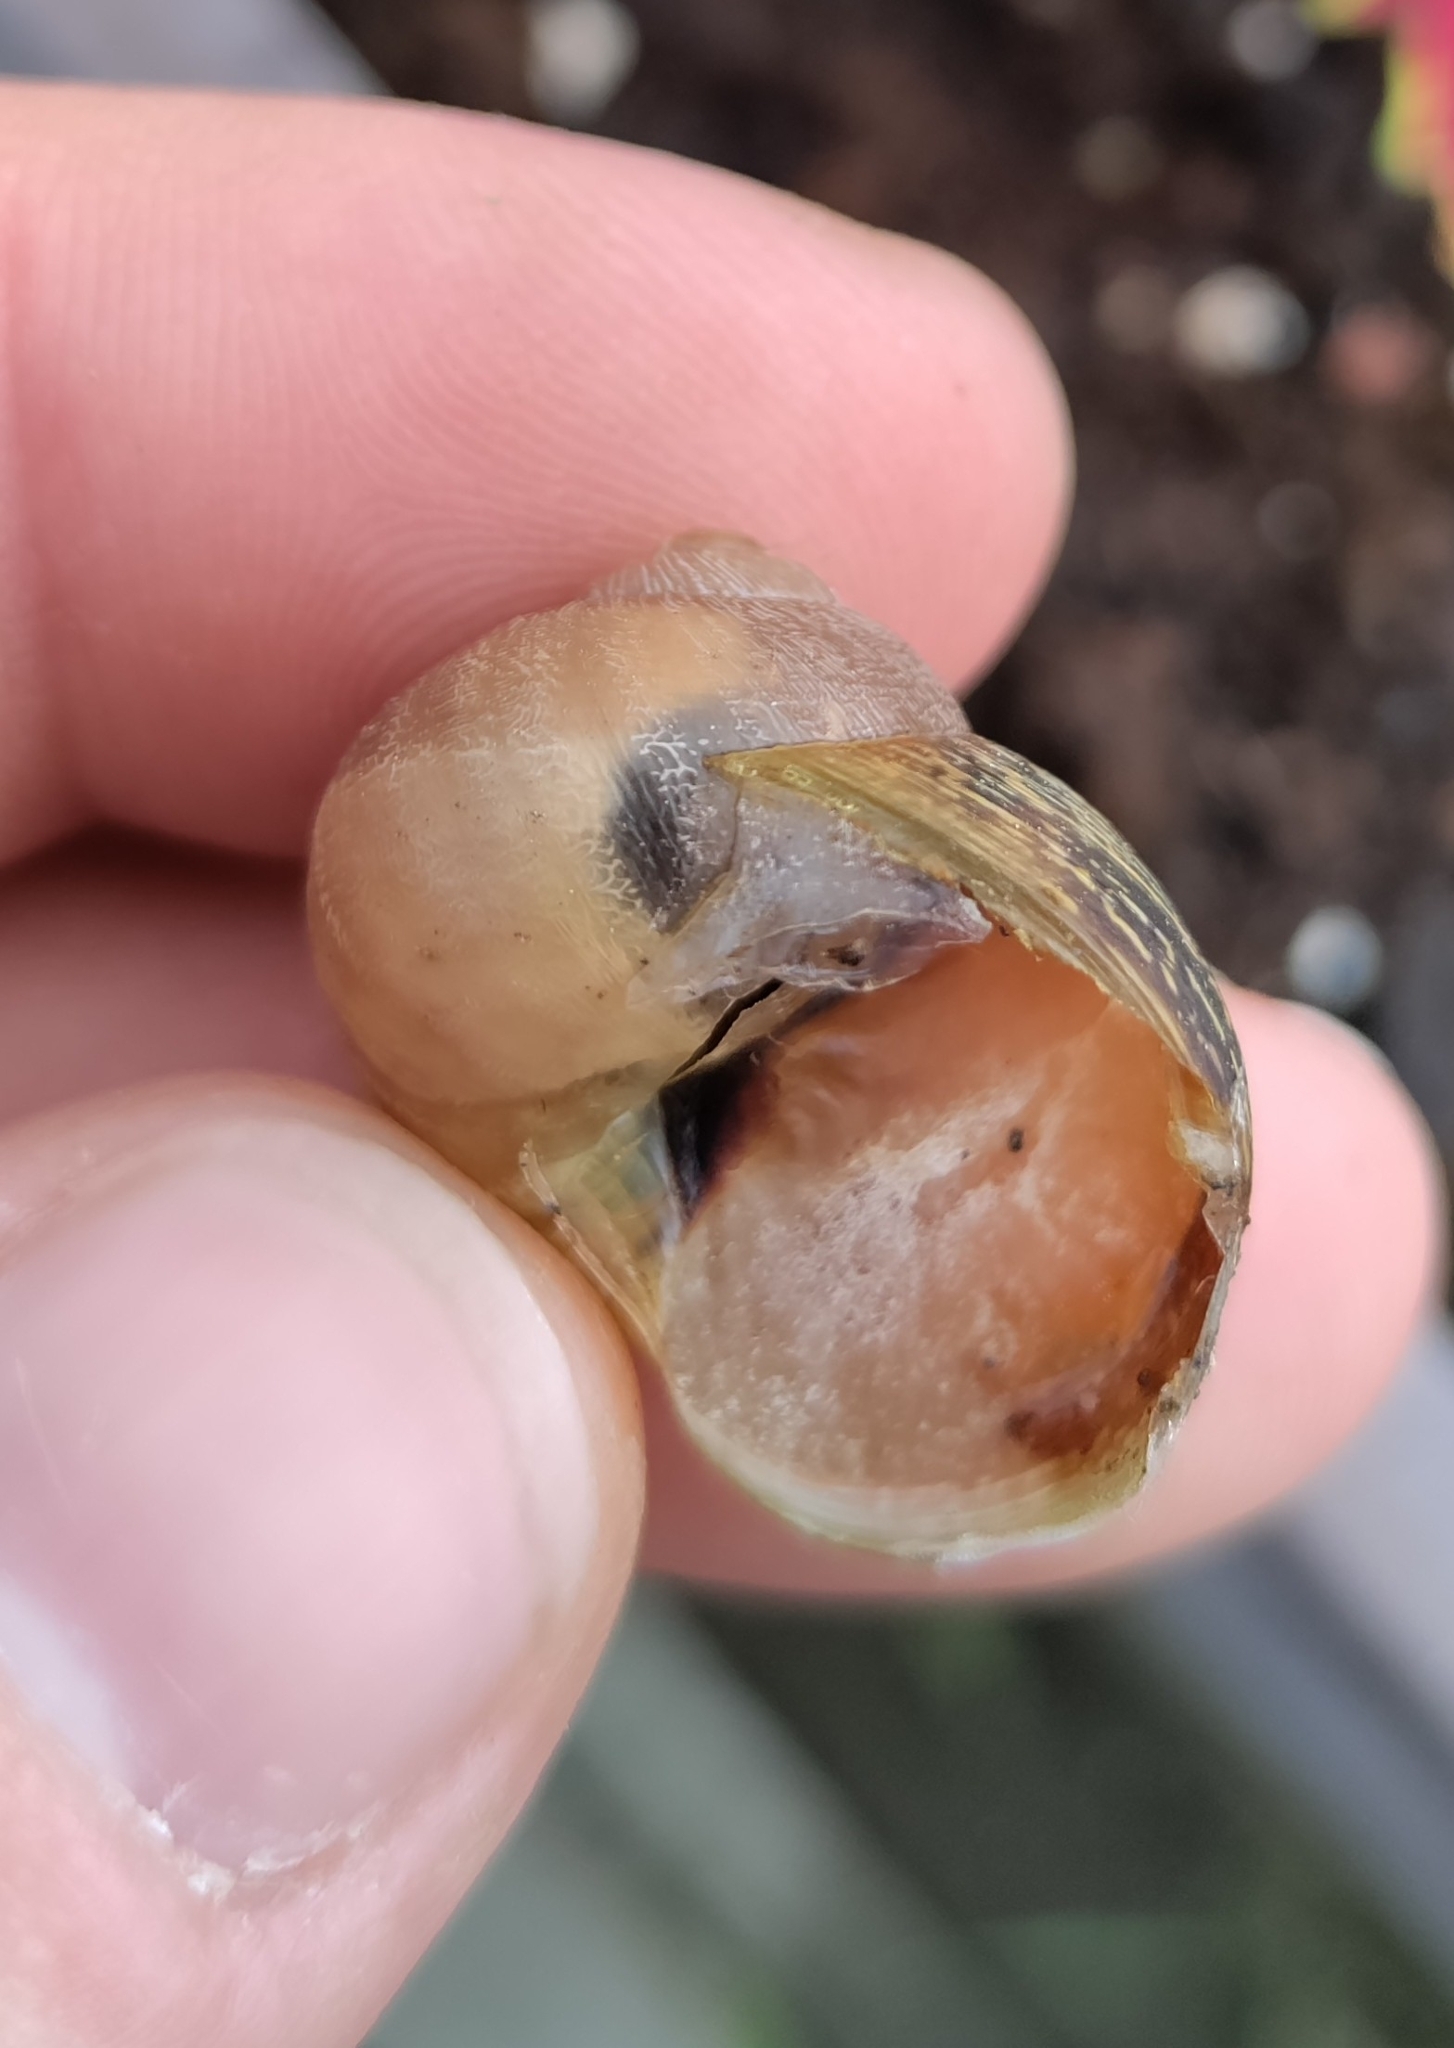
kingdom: Animalia
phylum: Mollusca
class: Gastropoda
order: Stylommatophora
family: Helicidae
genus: Cornu
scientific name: Cornu aspersum
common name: Brown garden snail
